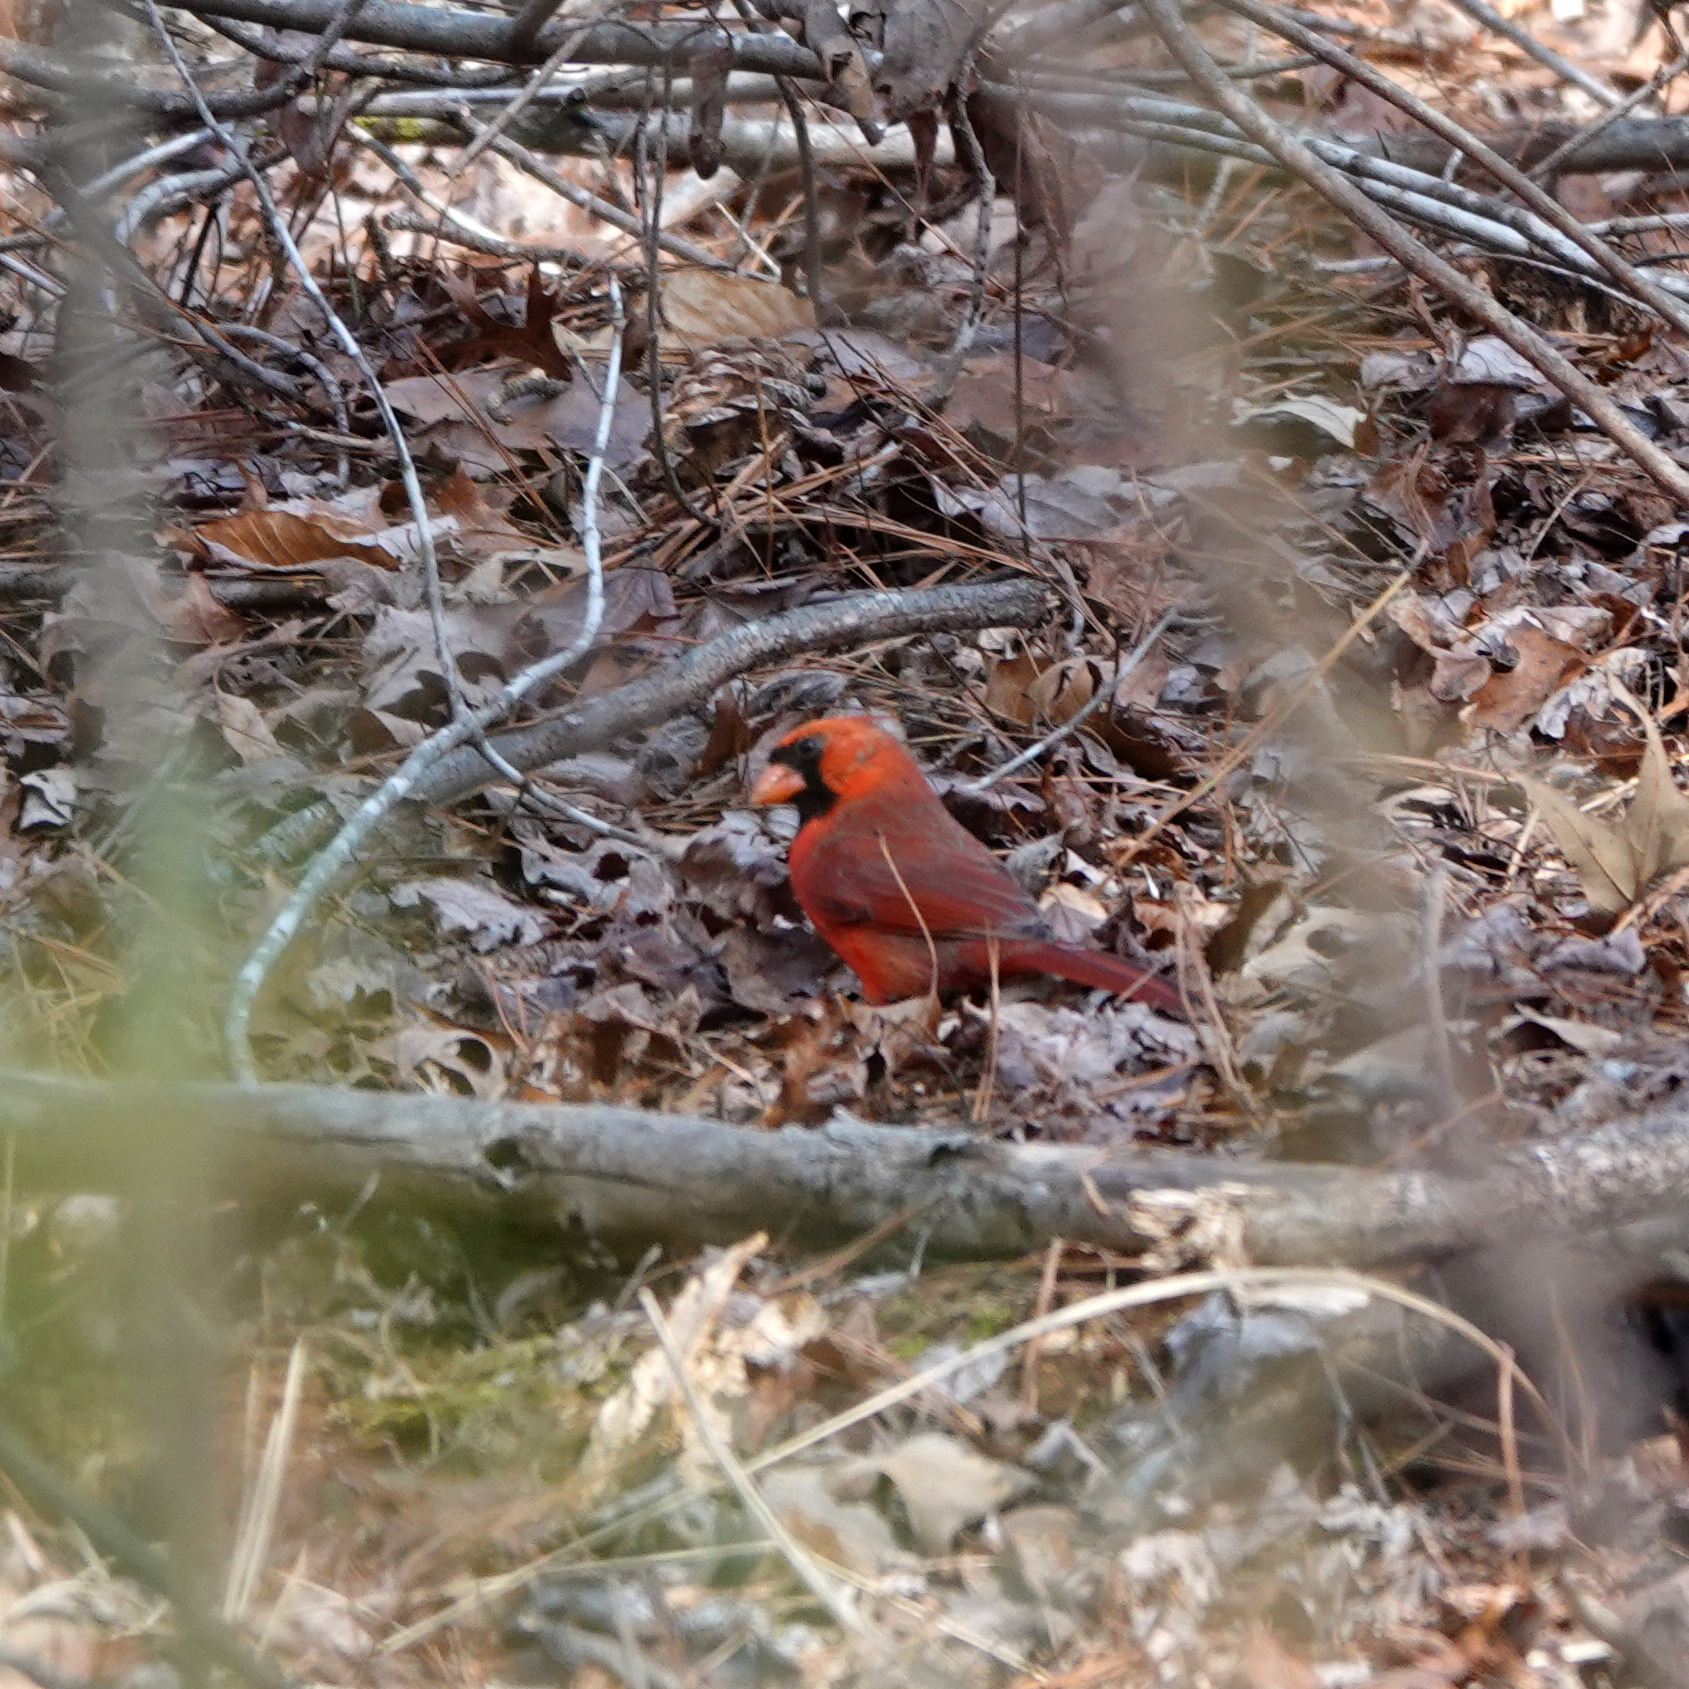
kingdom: Animalia
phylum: Chordata
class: Aves
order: Passeriformes
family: Cardinalidae
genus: Cardinalis
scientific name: Cardinalis cardinalis
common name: Northern cardinal
